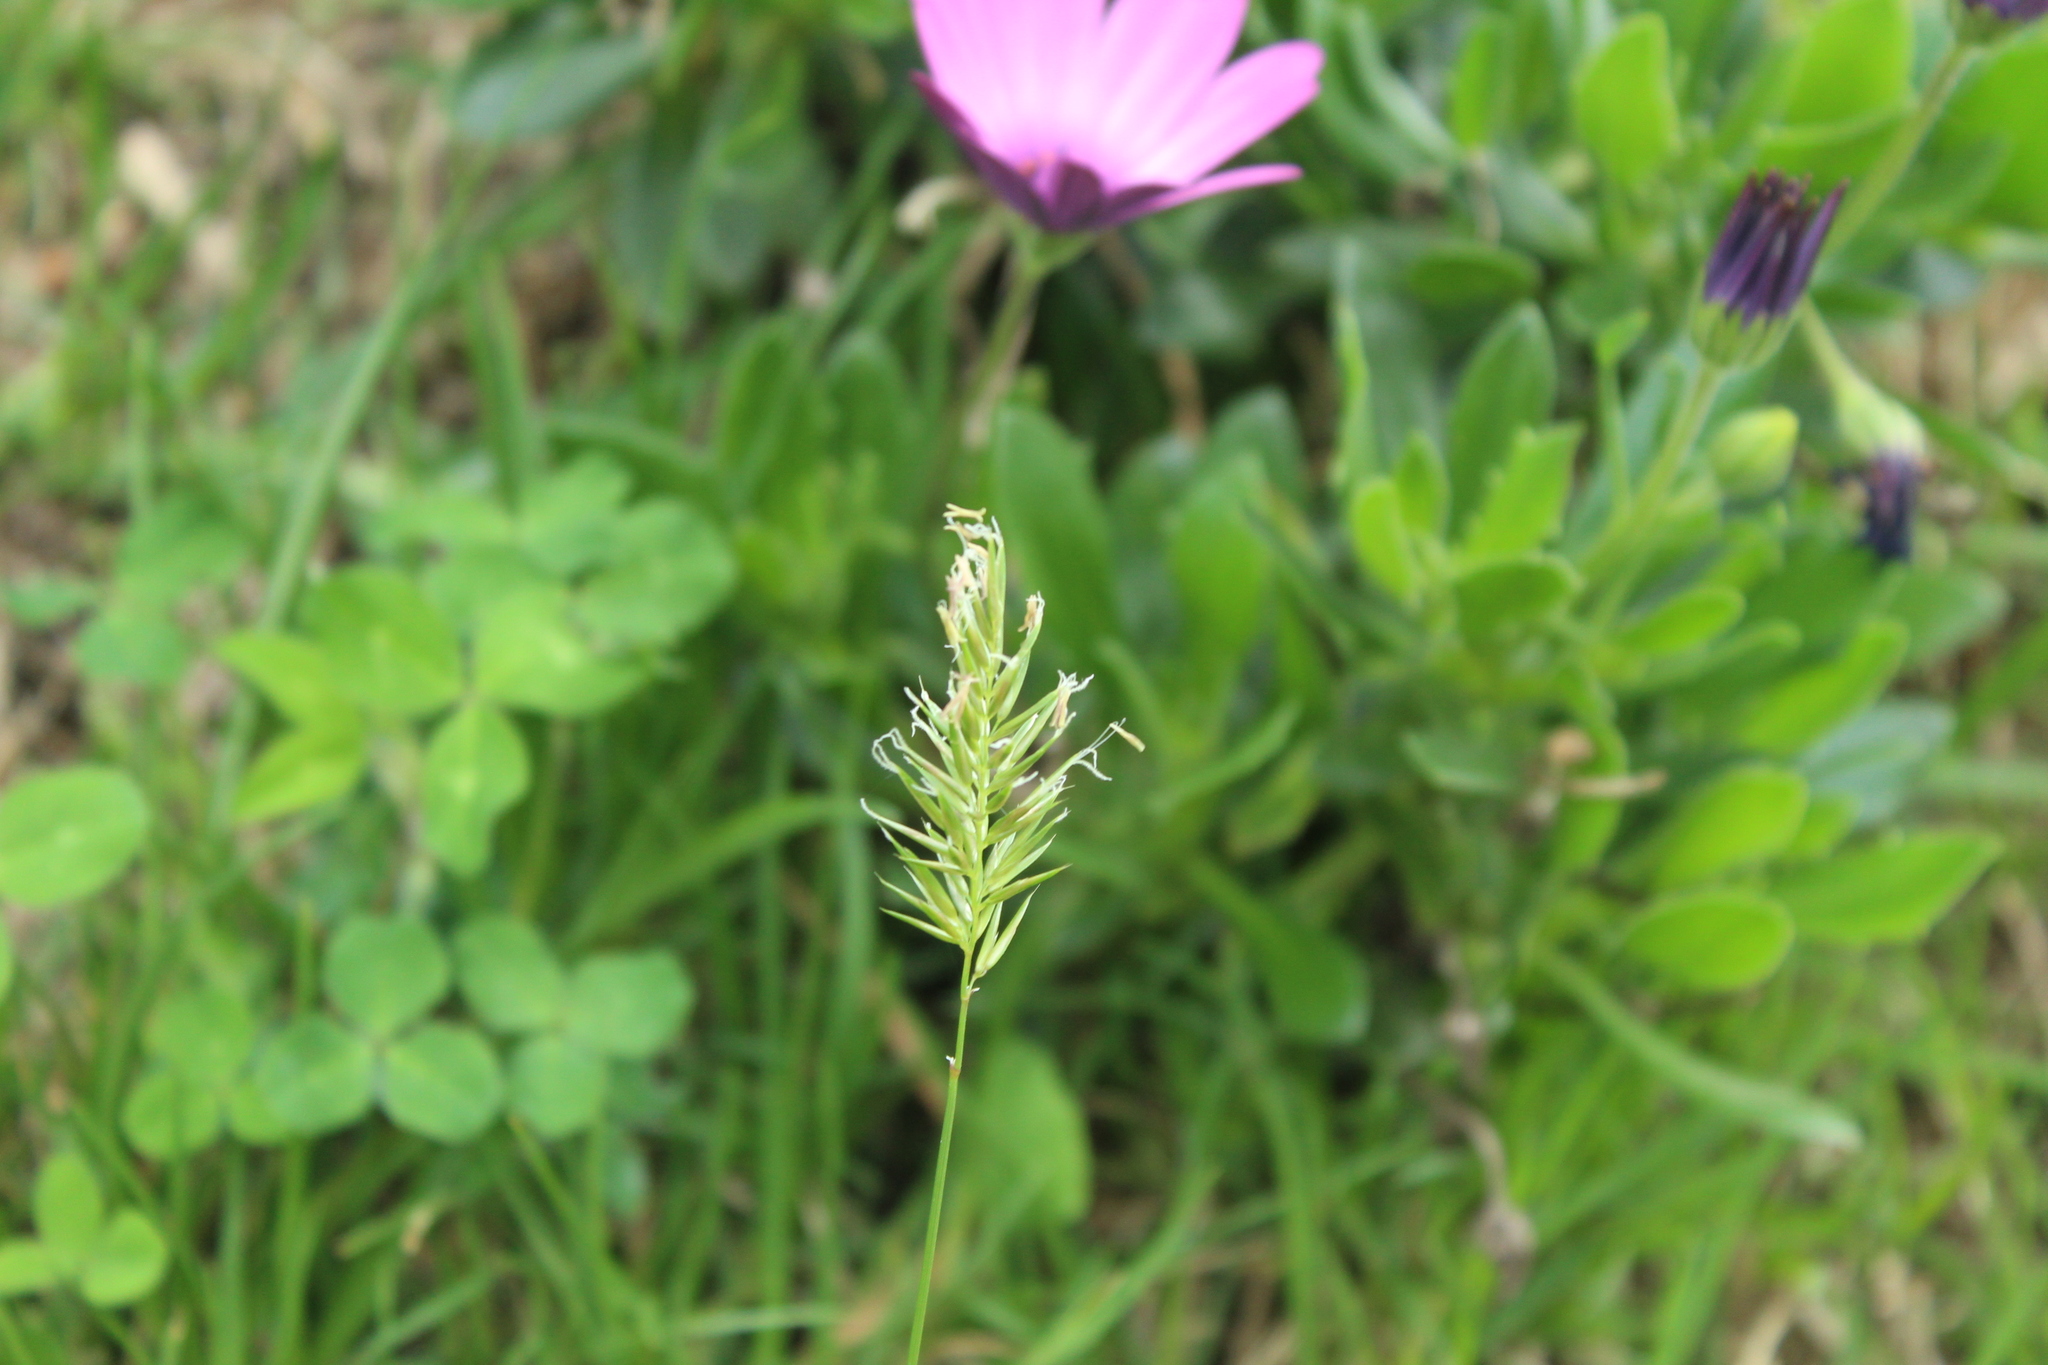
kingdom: Plantae
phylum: Tracheophyta
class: Liliopsida
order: Poales
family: Poaceae
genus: Anthoxanthum
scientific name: Anthoxanthum odoratum
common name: Sweet vernalgrass
